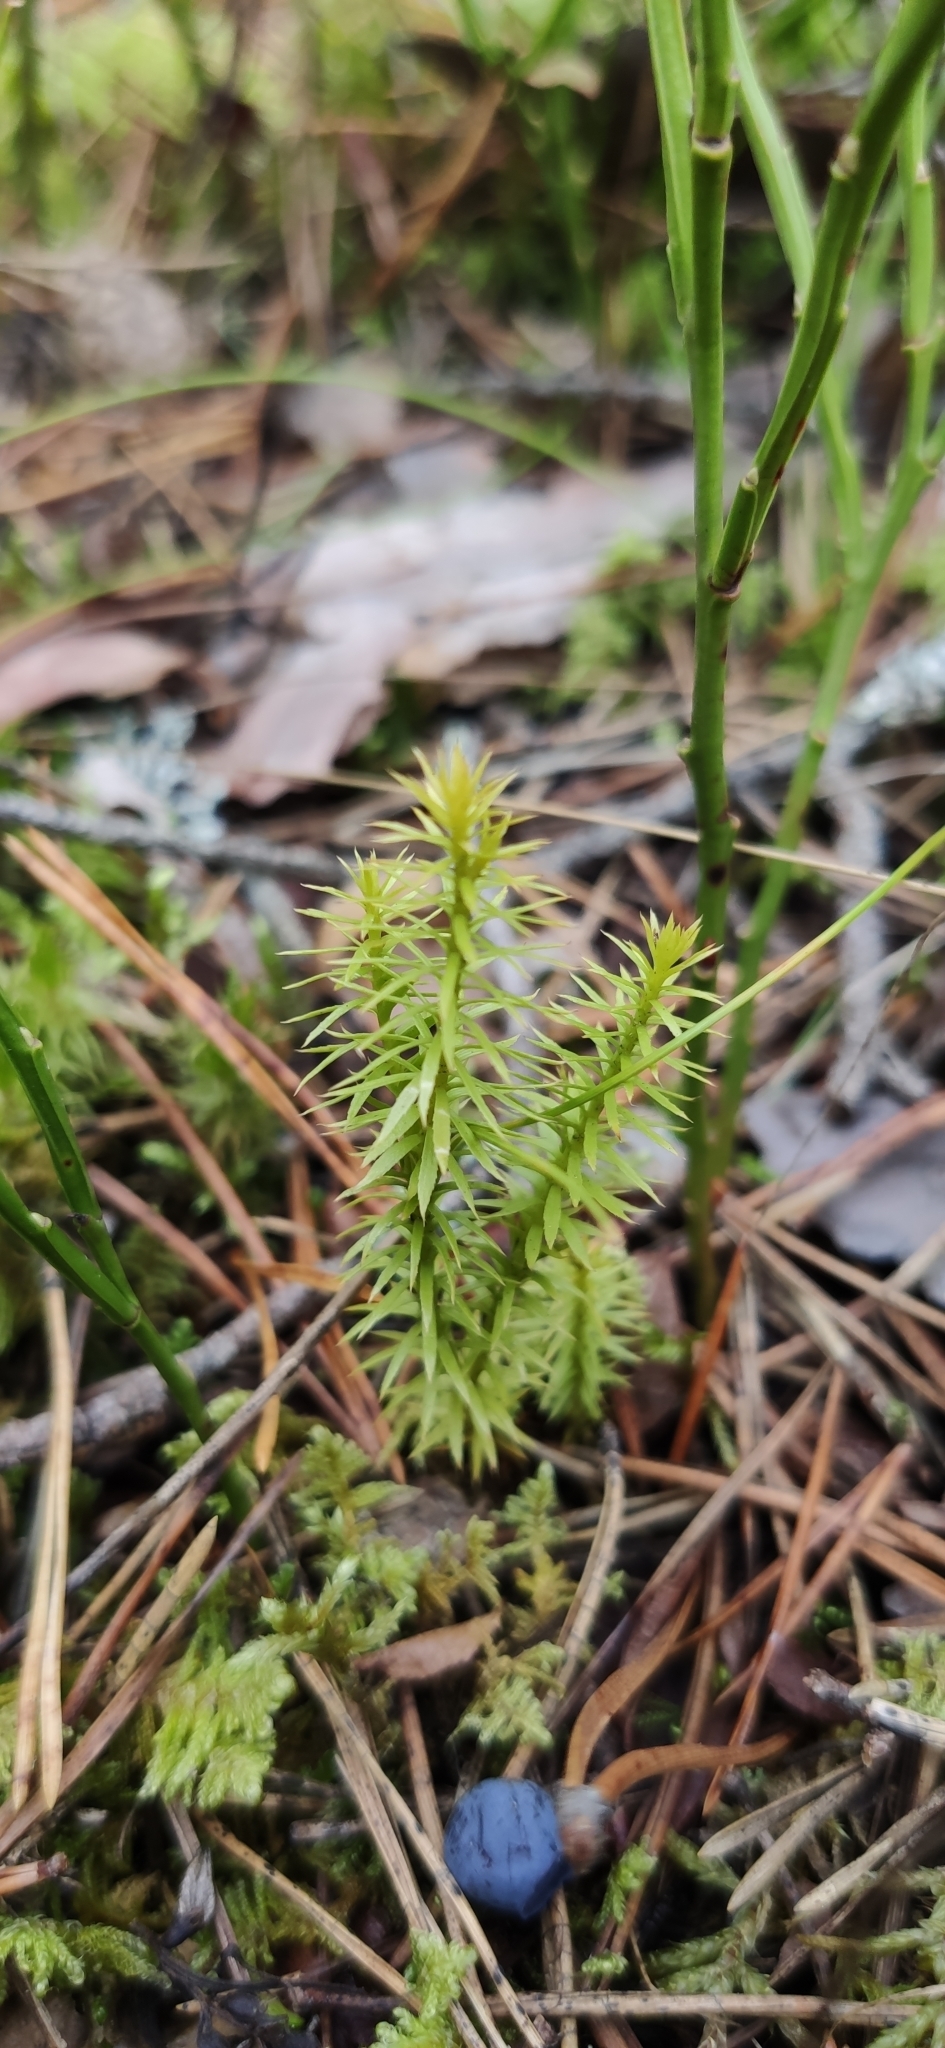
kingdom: Plantae
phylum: Tracheophyta
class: Lycopodiopsida
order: Lycopodiales
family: Lycopodiaceae
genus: Spinulum
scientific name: Spinulum annotinum
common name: Interrupted club-moss
